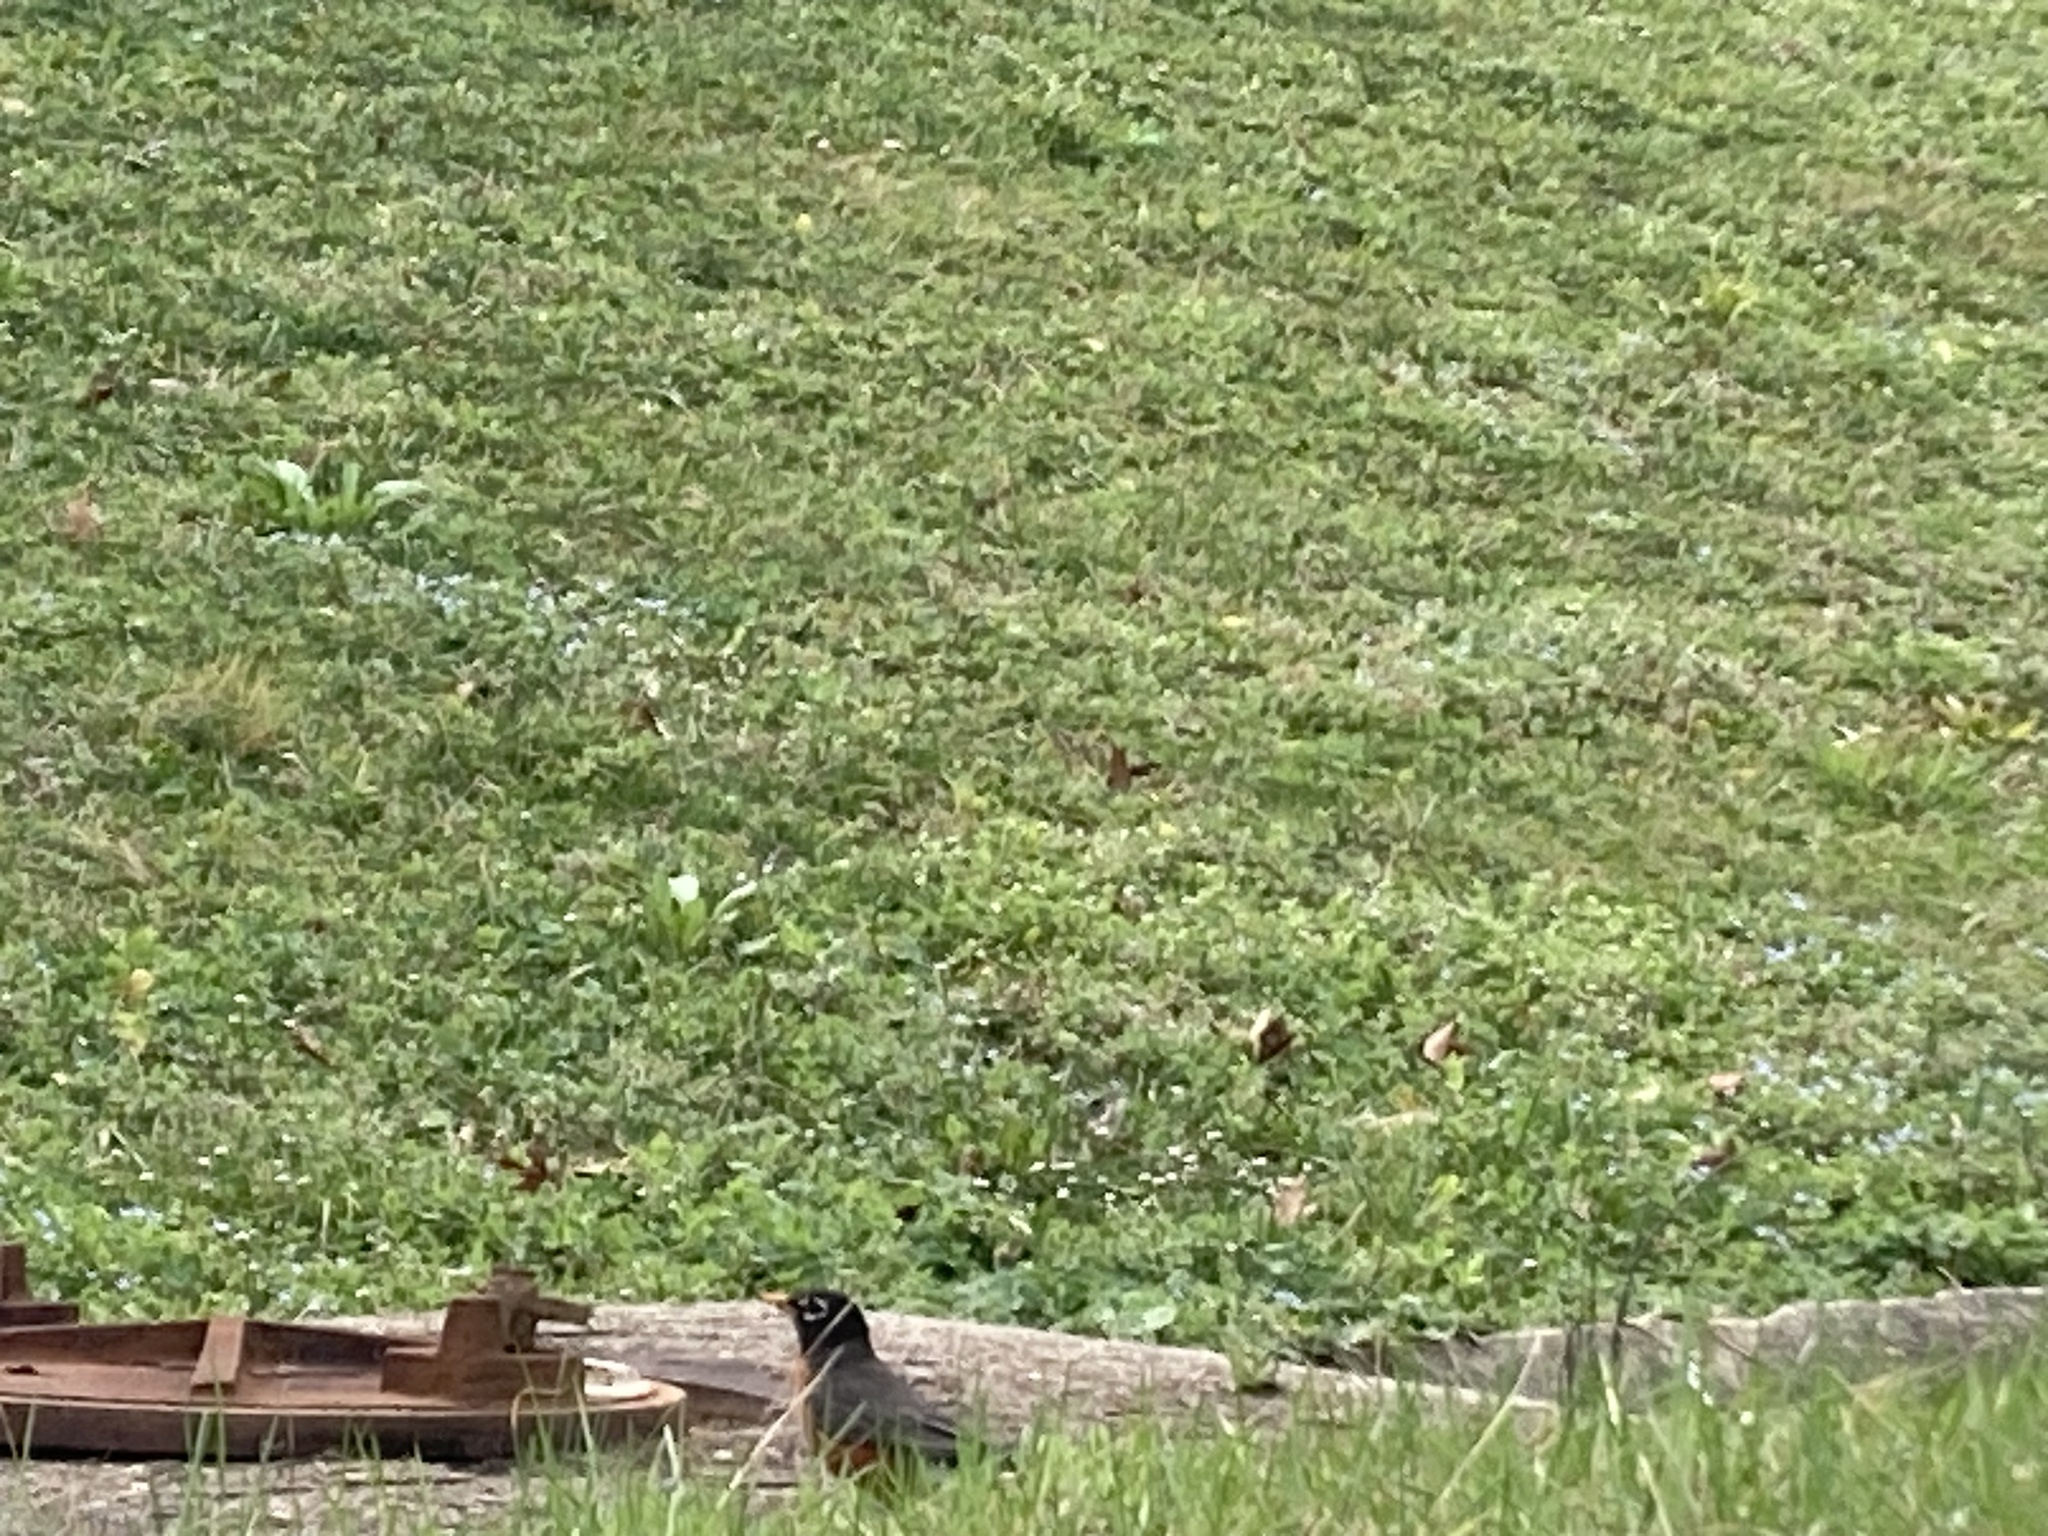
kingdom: Animalia
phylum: Chordata
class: Aves
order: Passeriformes
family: Turdidae
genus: Turdus
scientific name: Turdus migratorius
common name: American robin
